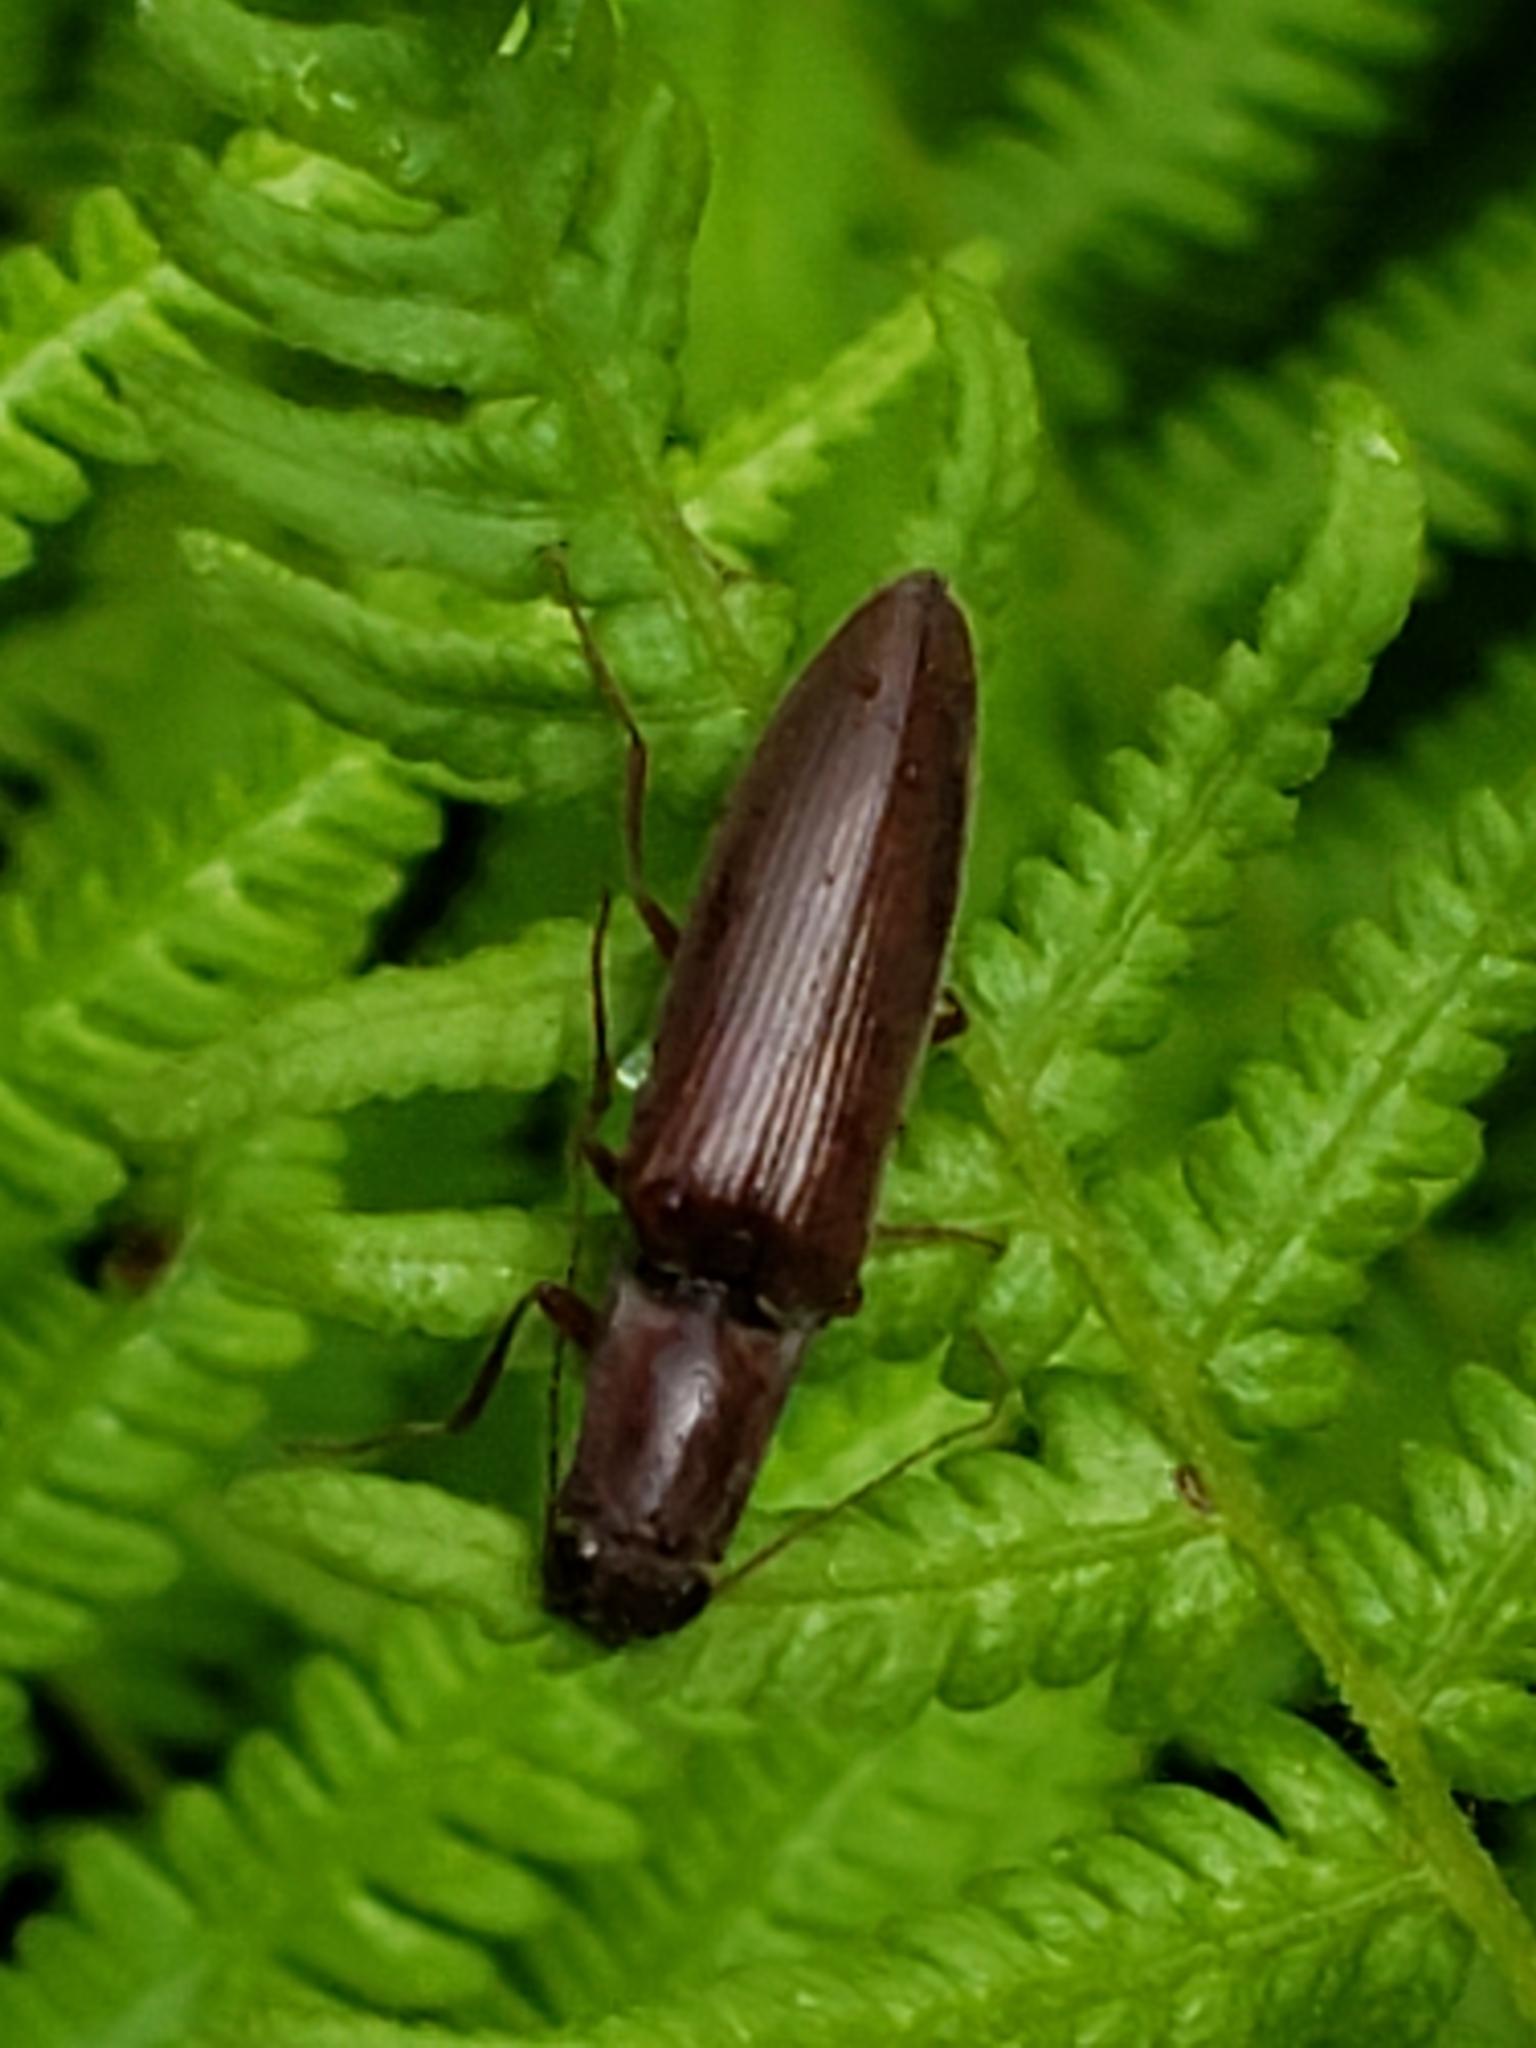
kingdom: Animalia
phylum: Arthropoda
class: Insecta
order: Coleoptera
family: Elateridae
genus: Proludius
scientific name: Proludius pyrros
